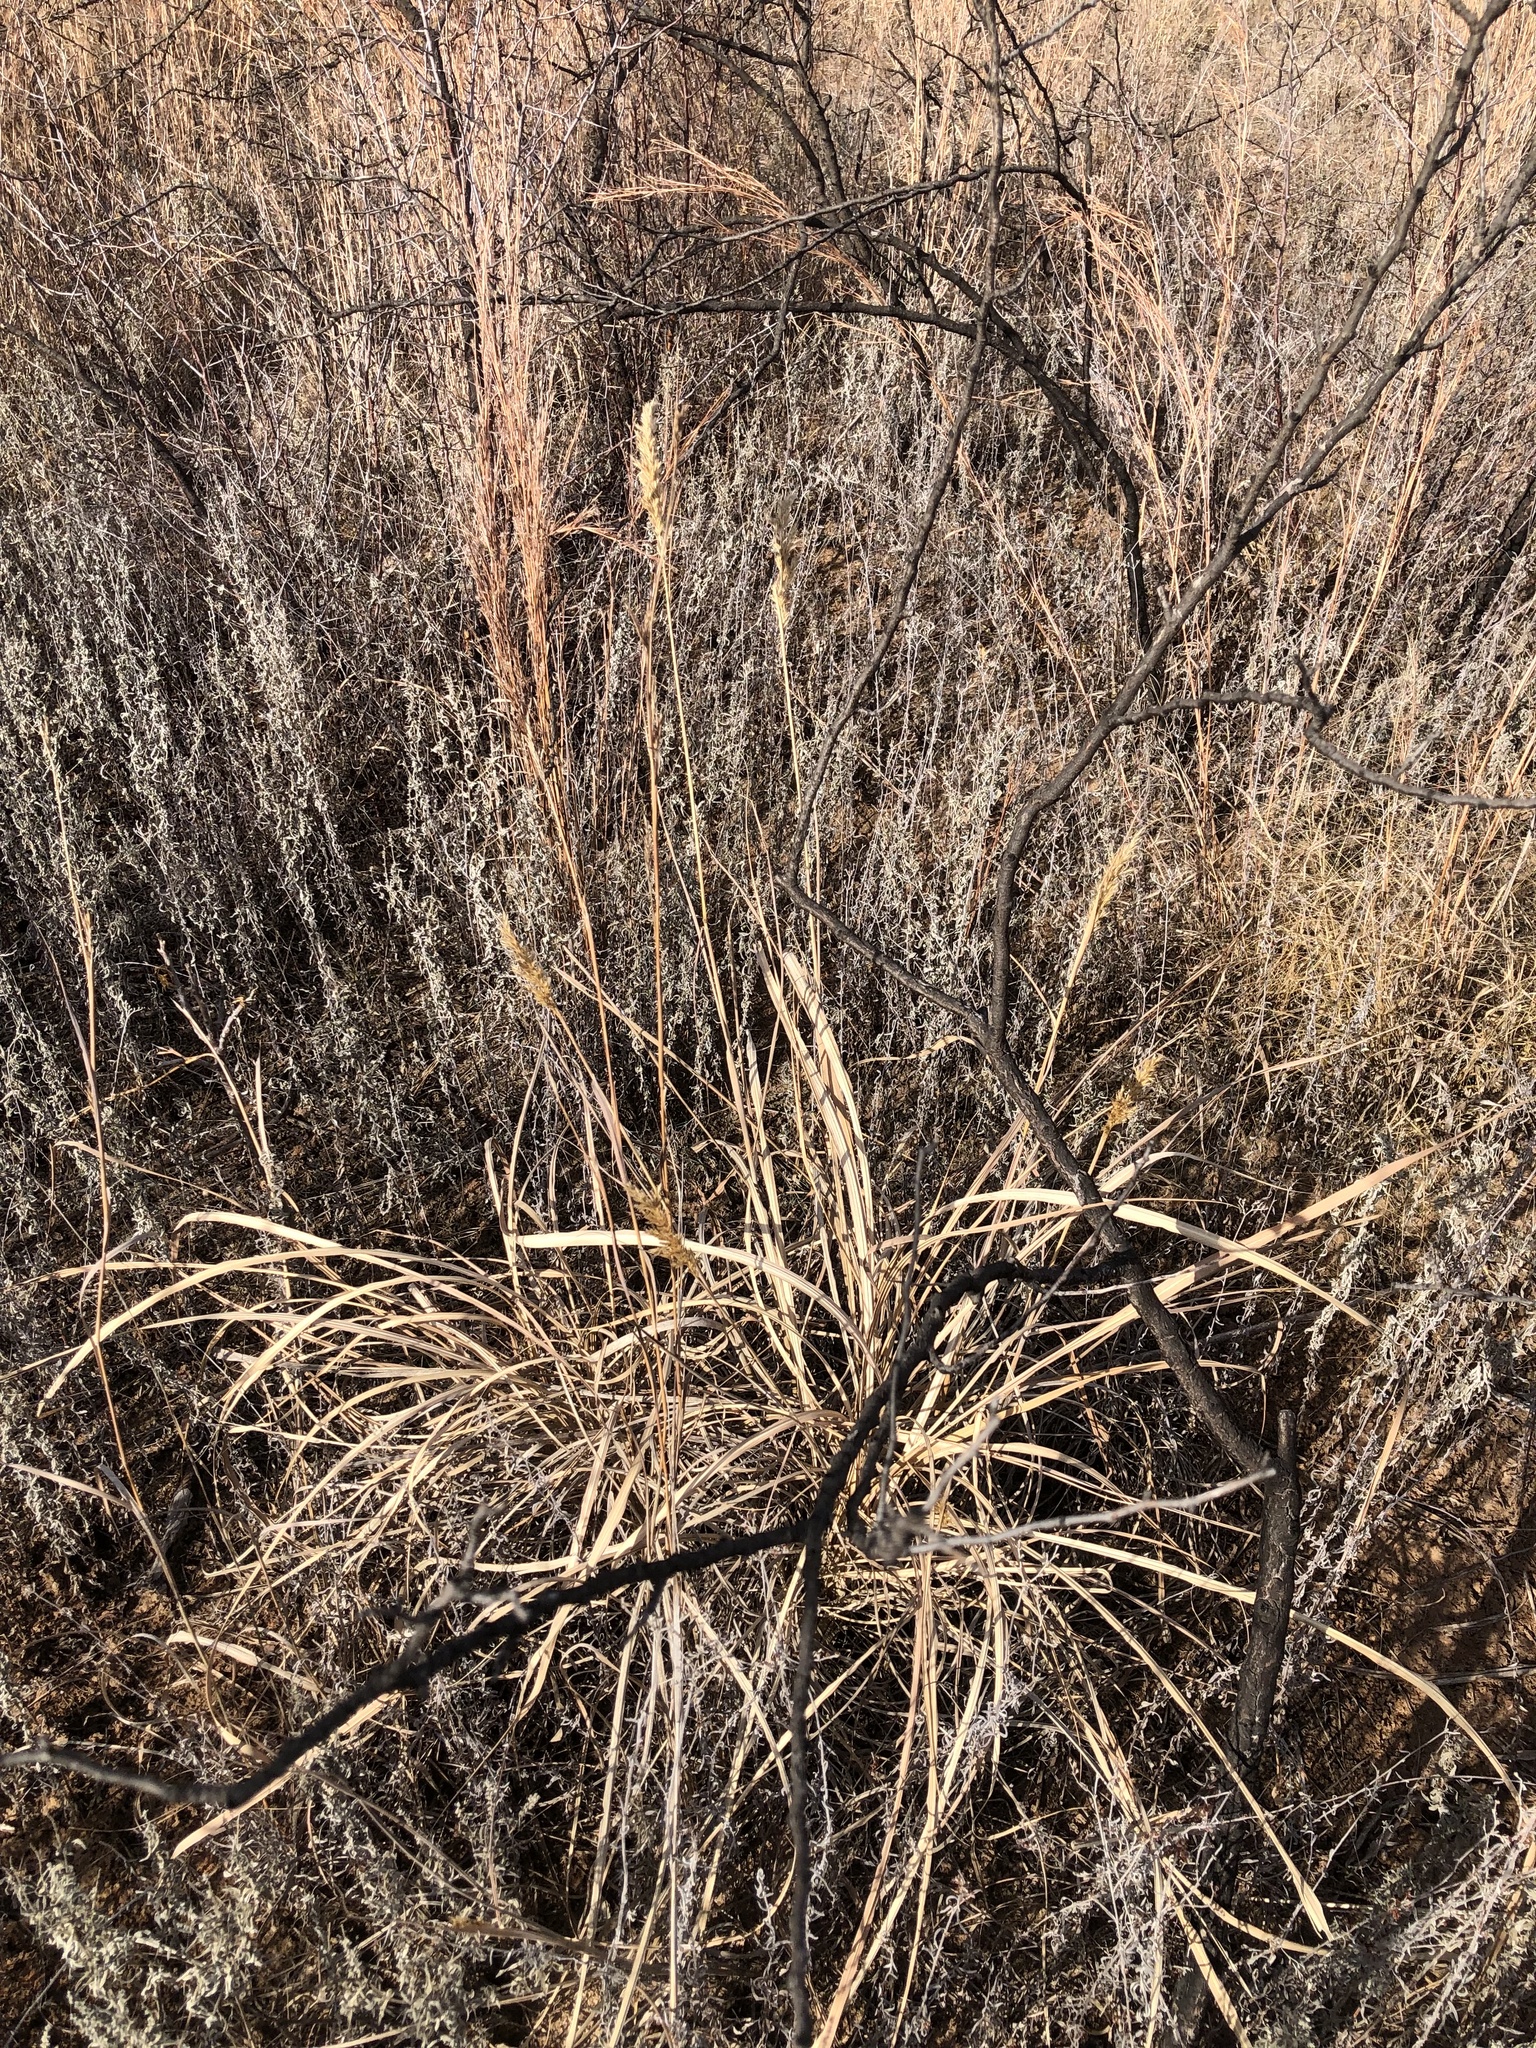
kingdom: Plantae
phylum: Tracheophyta
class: Liliopsida
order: Poales
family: Poaceae
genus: Sorghastrum
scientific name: Sorghastrum nutans
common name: Indian grass
